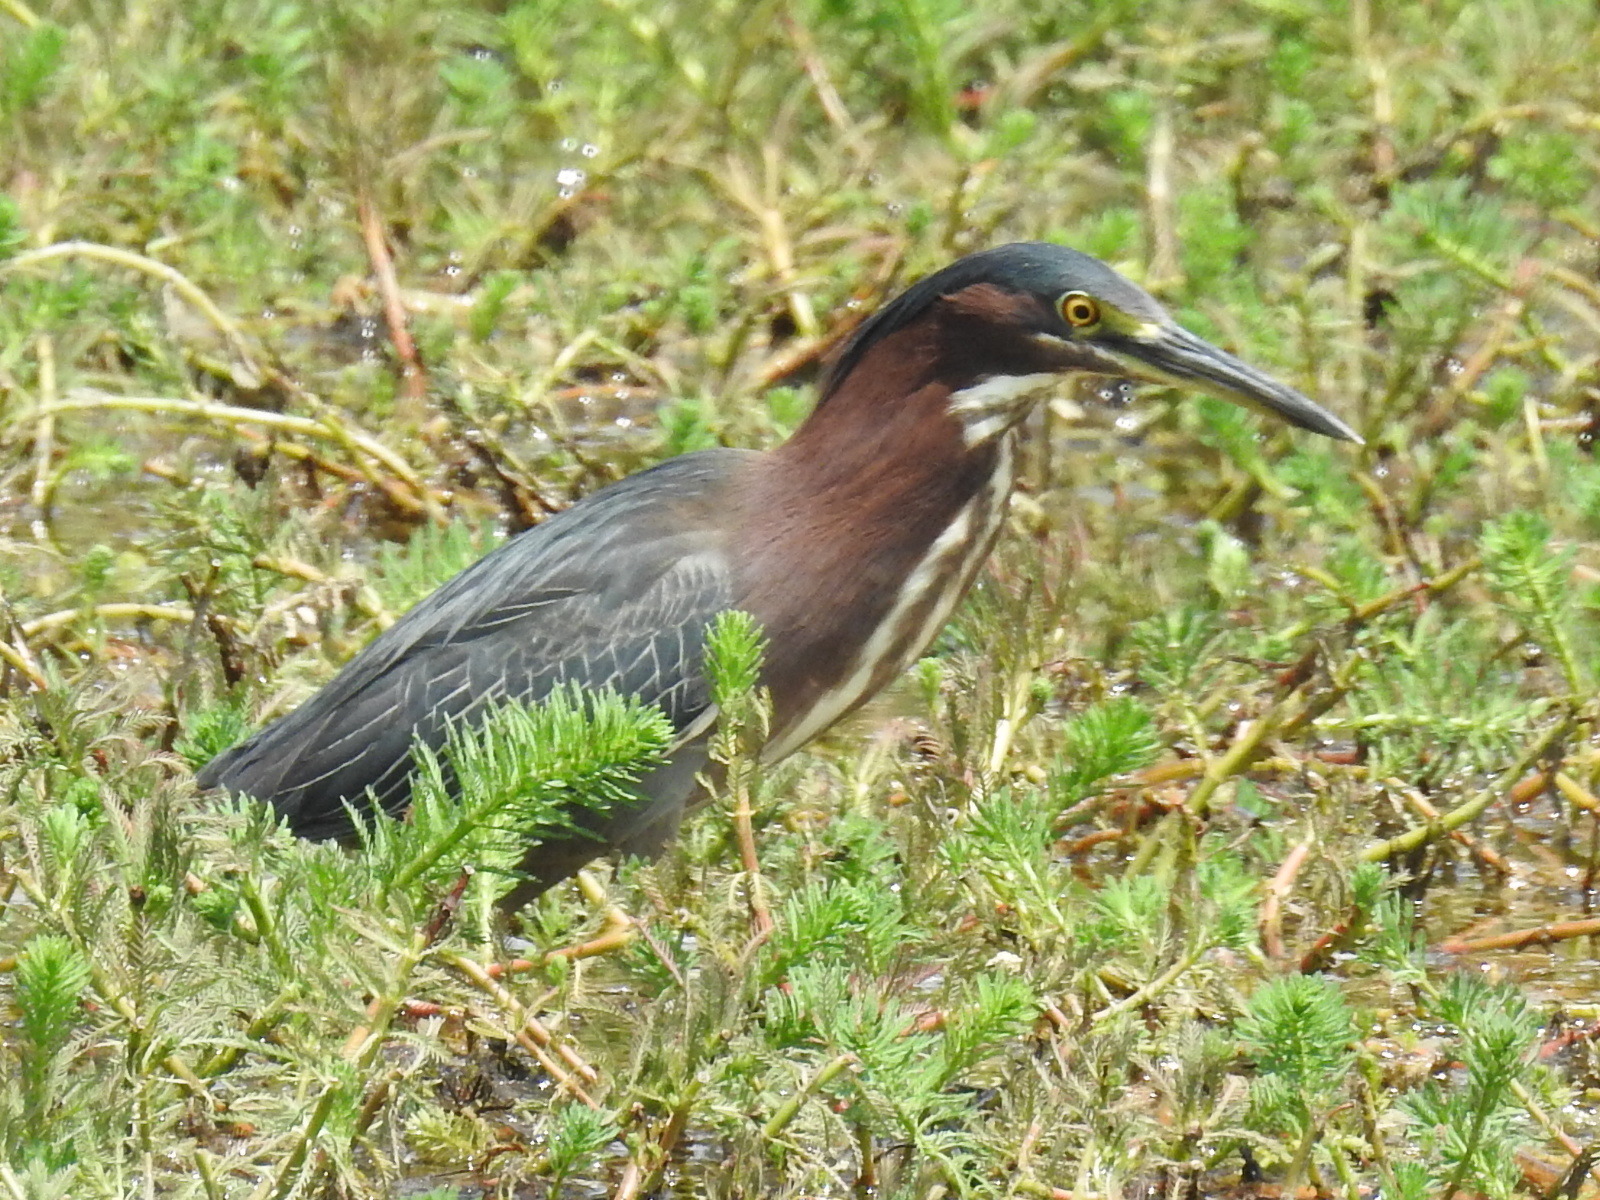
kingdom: Animalia
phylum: Chordata
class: Aves
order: Pelecaniformes
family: Ardeidae
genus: Butorides
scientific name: Butorides virescens
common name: Green heron
